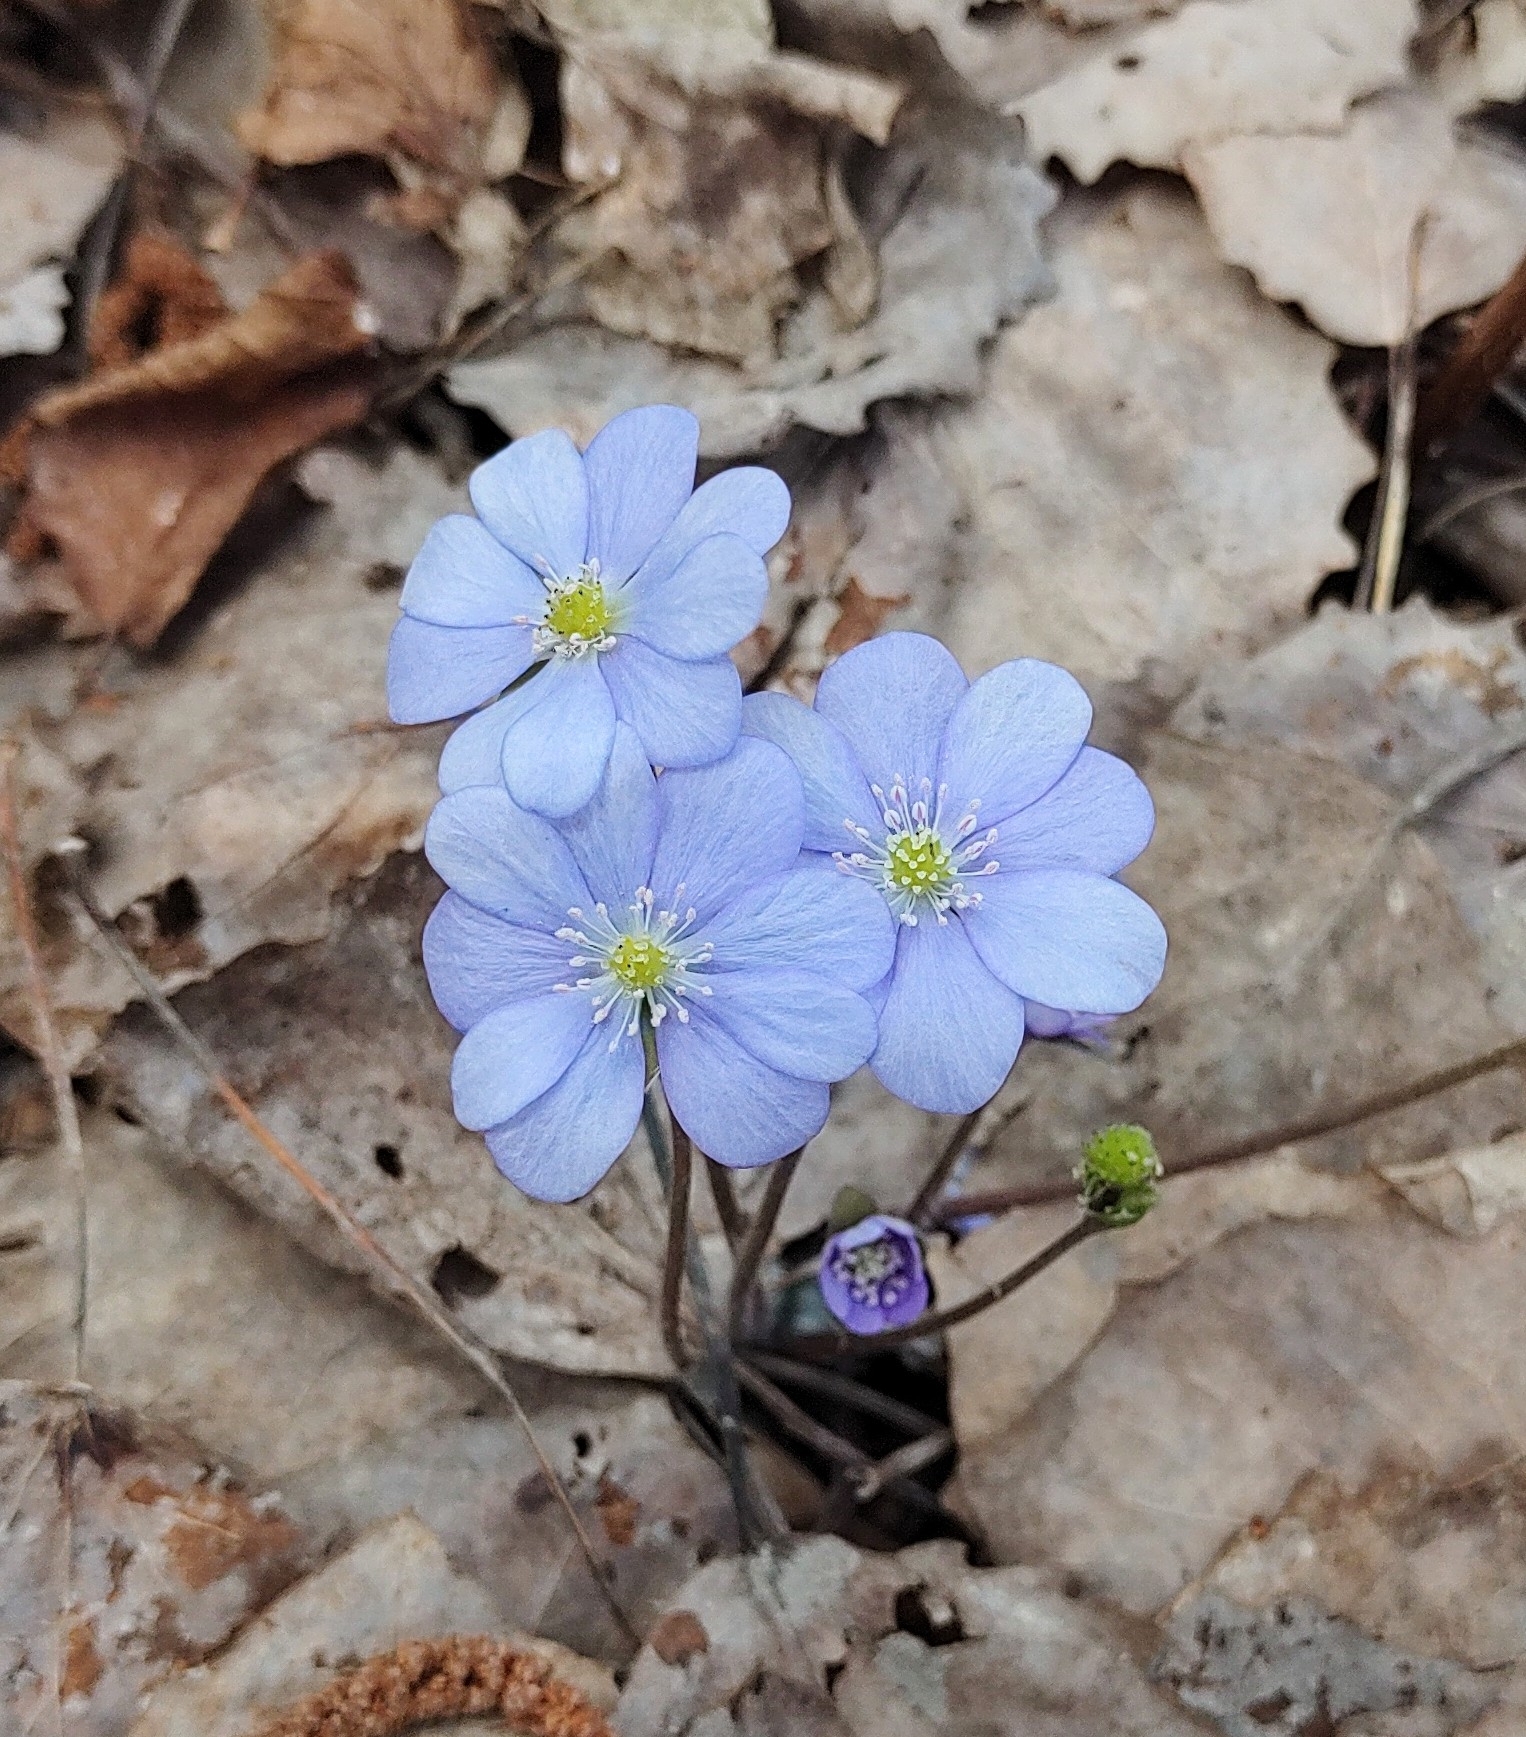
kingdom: Plantae
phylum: Tracheophyta
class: Magnoliopsida
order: Ranunculales
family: Ranunculaceae
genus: Hepatica
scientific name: Hepatica nobilis
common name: Liverleaf
